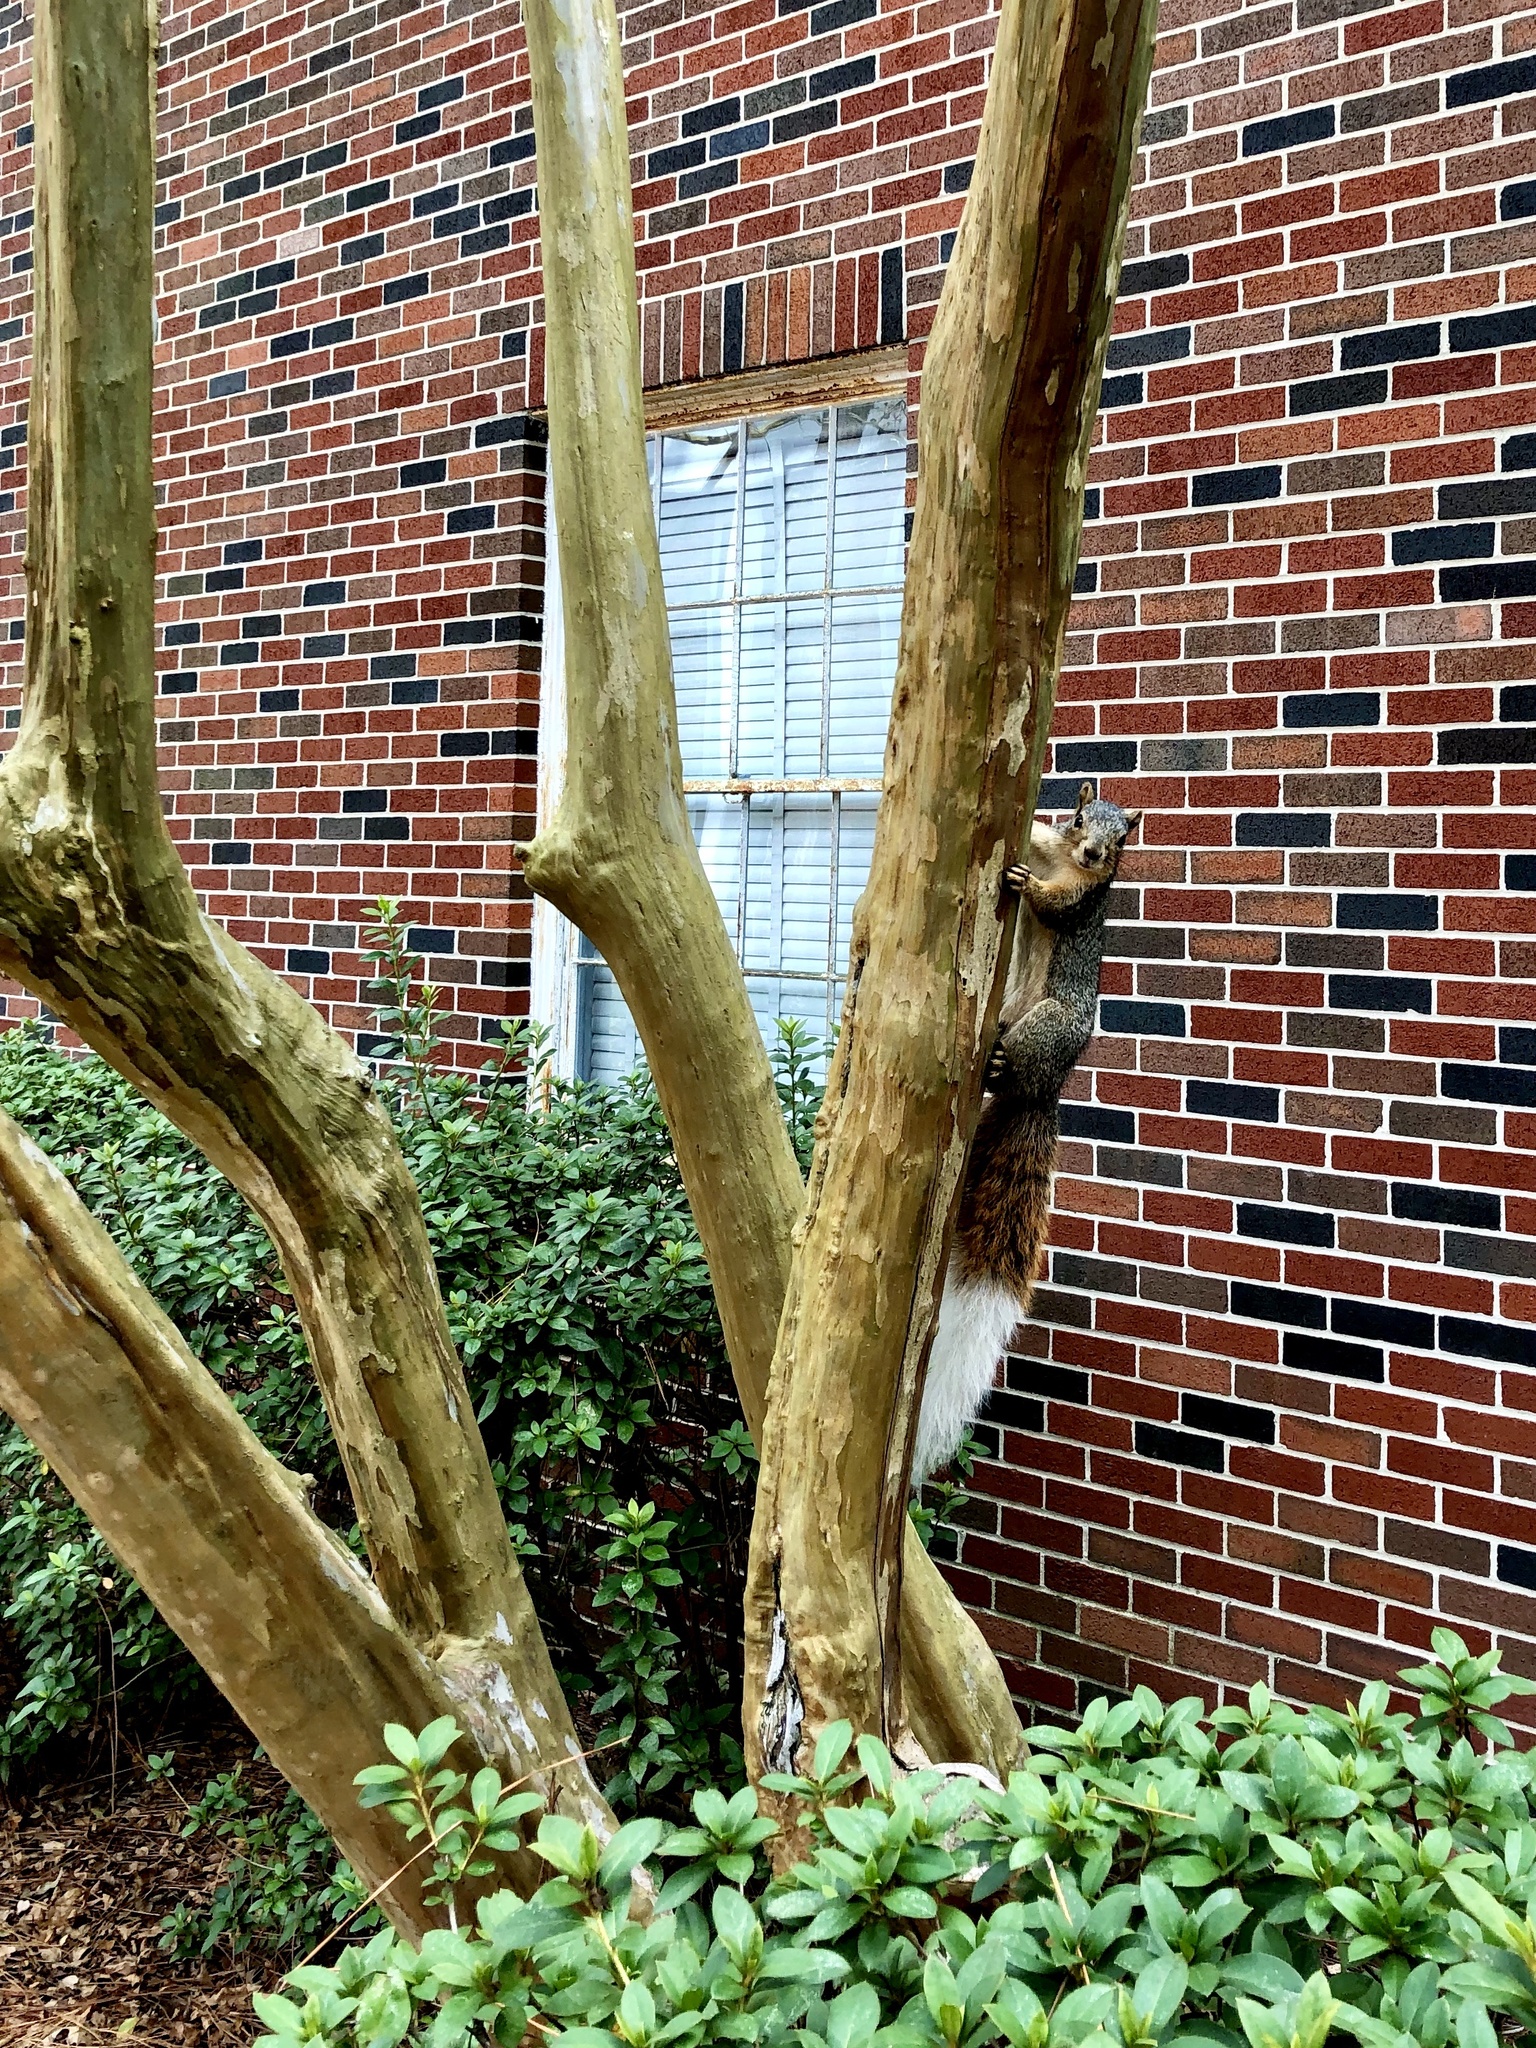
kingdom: Animalia
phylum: Chordata
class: Mammalia
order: Rodentia
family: Sciuridae
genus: Sciurus
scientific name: Sciurus niger
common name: Fox squirrel
